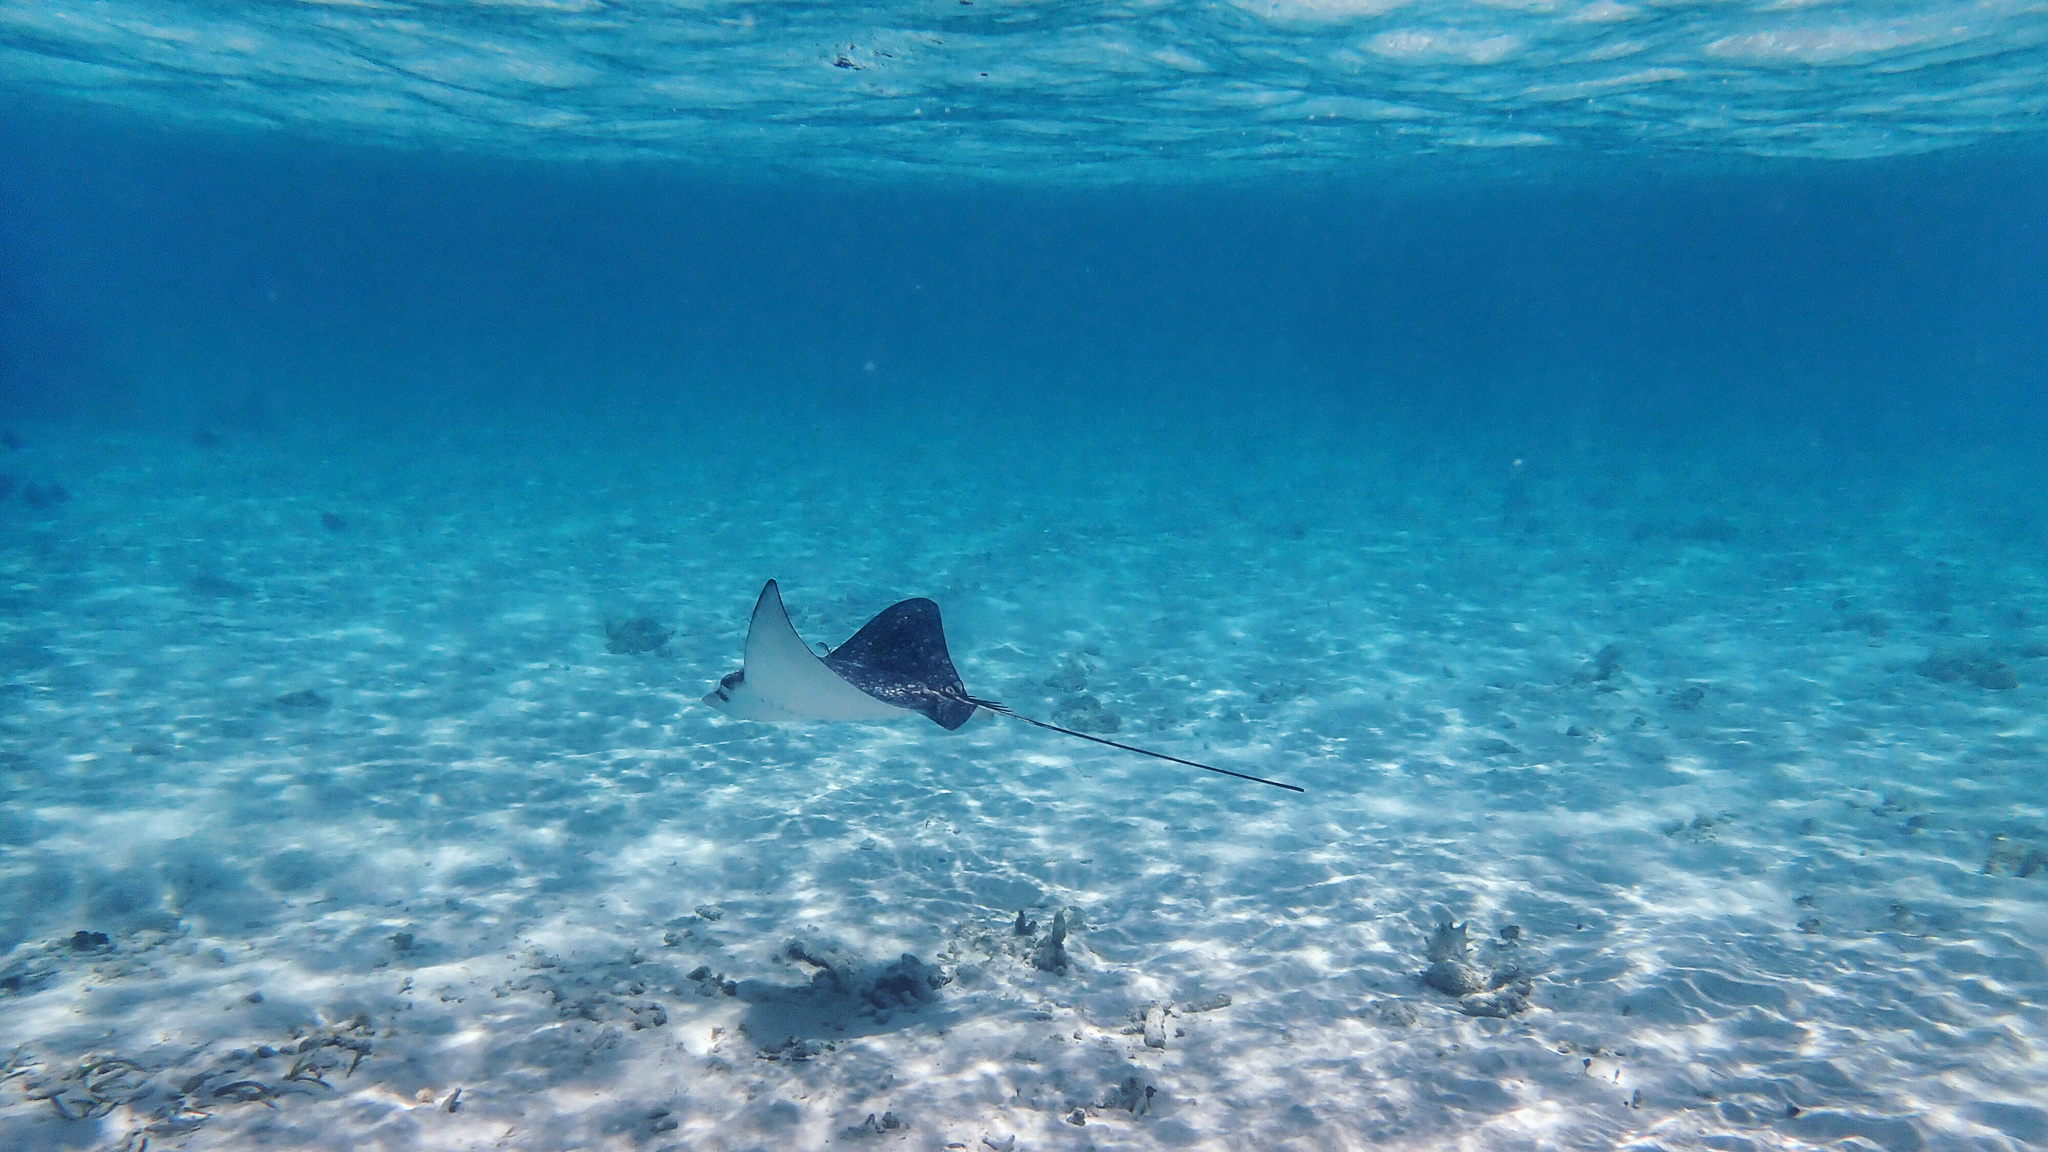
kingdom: Animalia
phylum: Chordata
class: Elasmobranchii
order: Myliobatiformes
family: Myliobatidae
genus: Aetobatus
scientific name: Aetobatus narinari
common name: Spotted eagle ray
